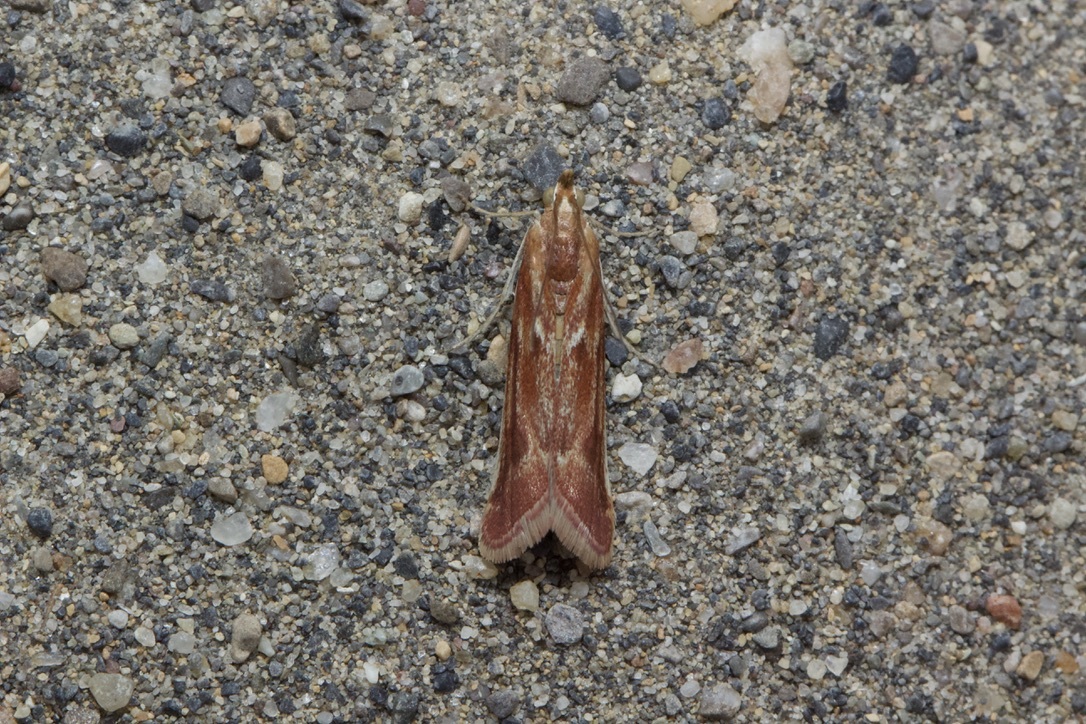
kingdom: Animalia
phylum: Arthropoda
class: Insecta
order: Lepidoptera
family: Pyralidae
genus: Ancylosis
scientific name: Ancylosis
